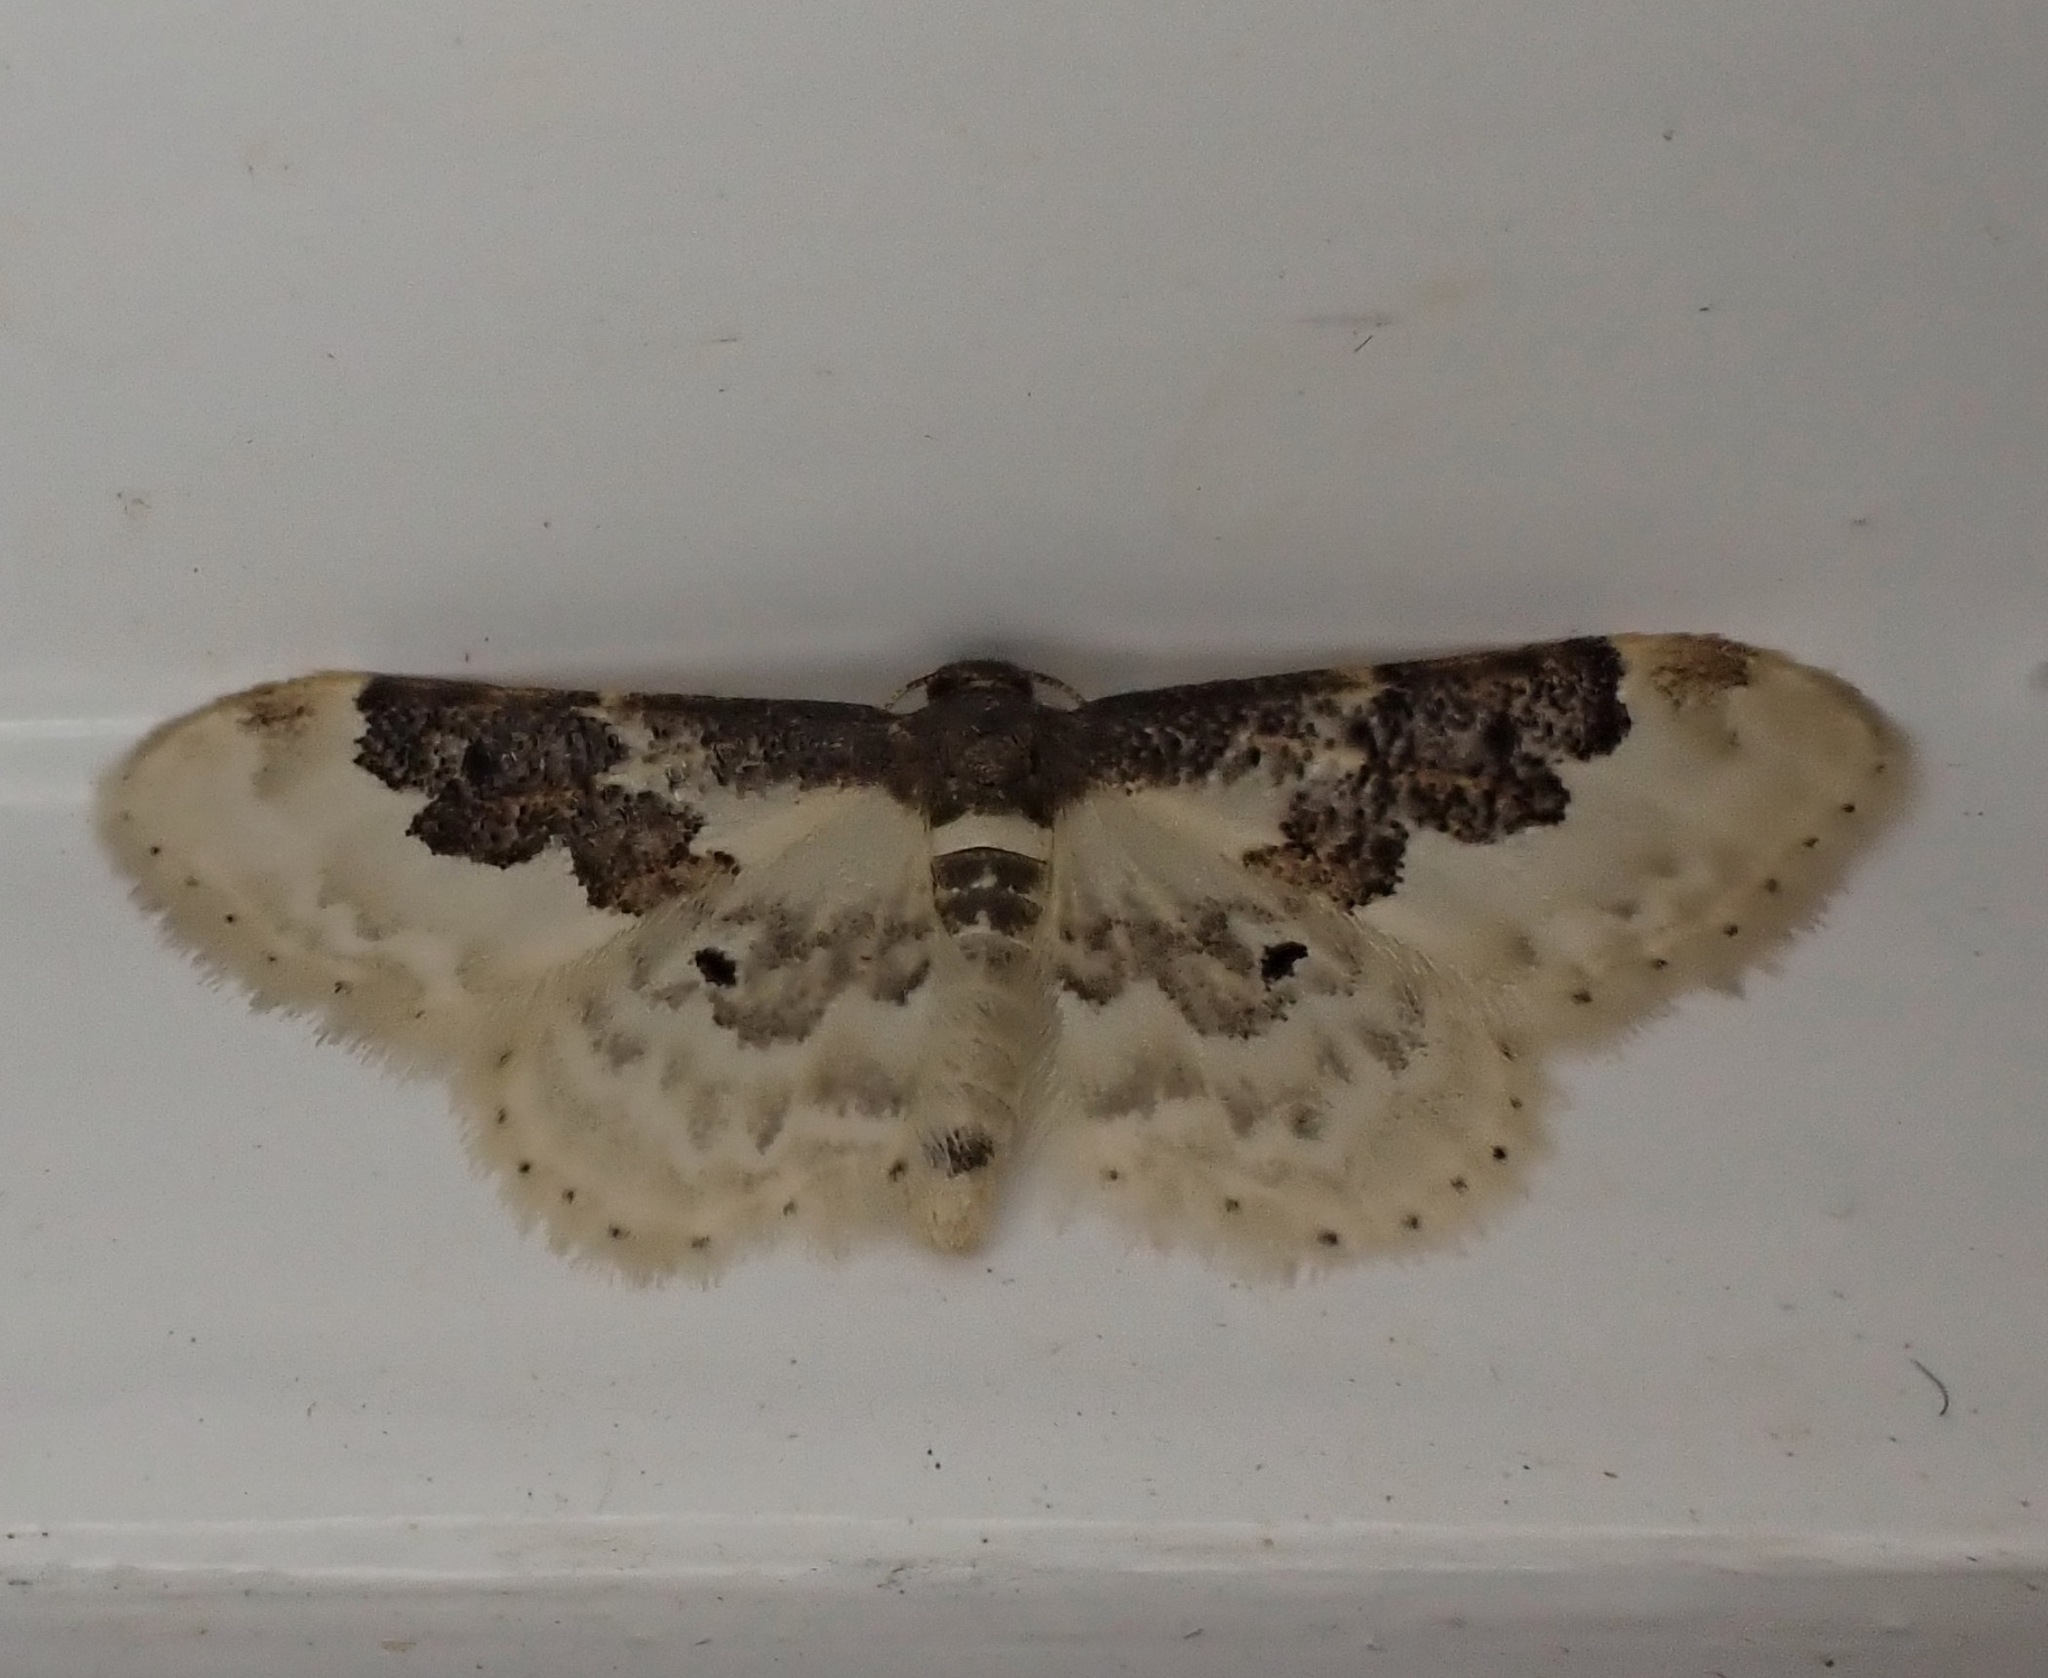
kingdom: Animalia
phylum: Arthropoda
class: Insecta
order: Lepidoptera
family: Geometridae
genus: Idaea
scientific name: Idaea rusticata
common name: Least carpet
